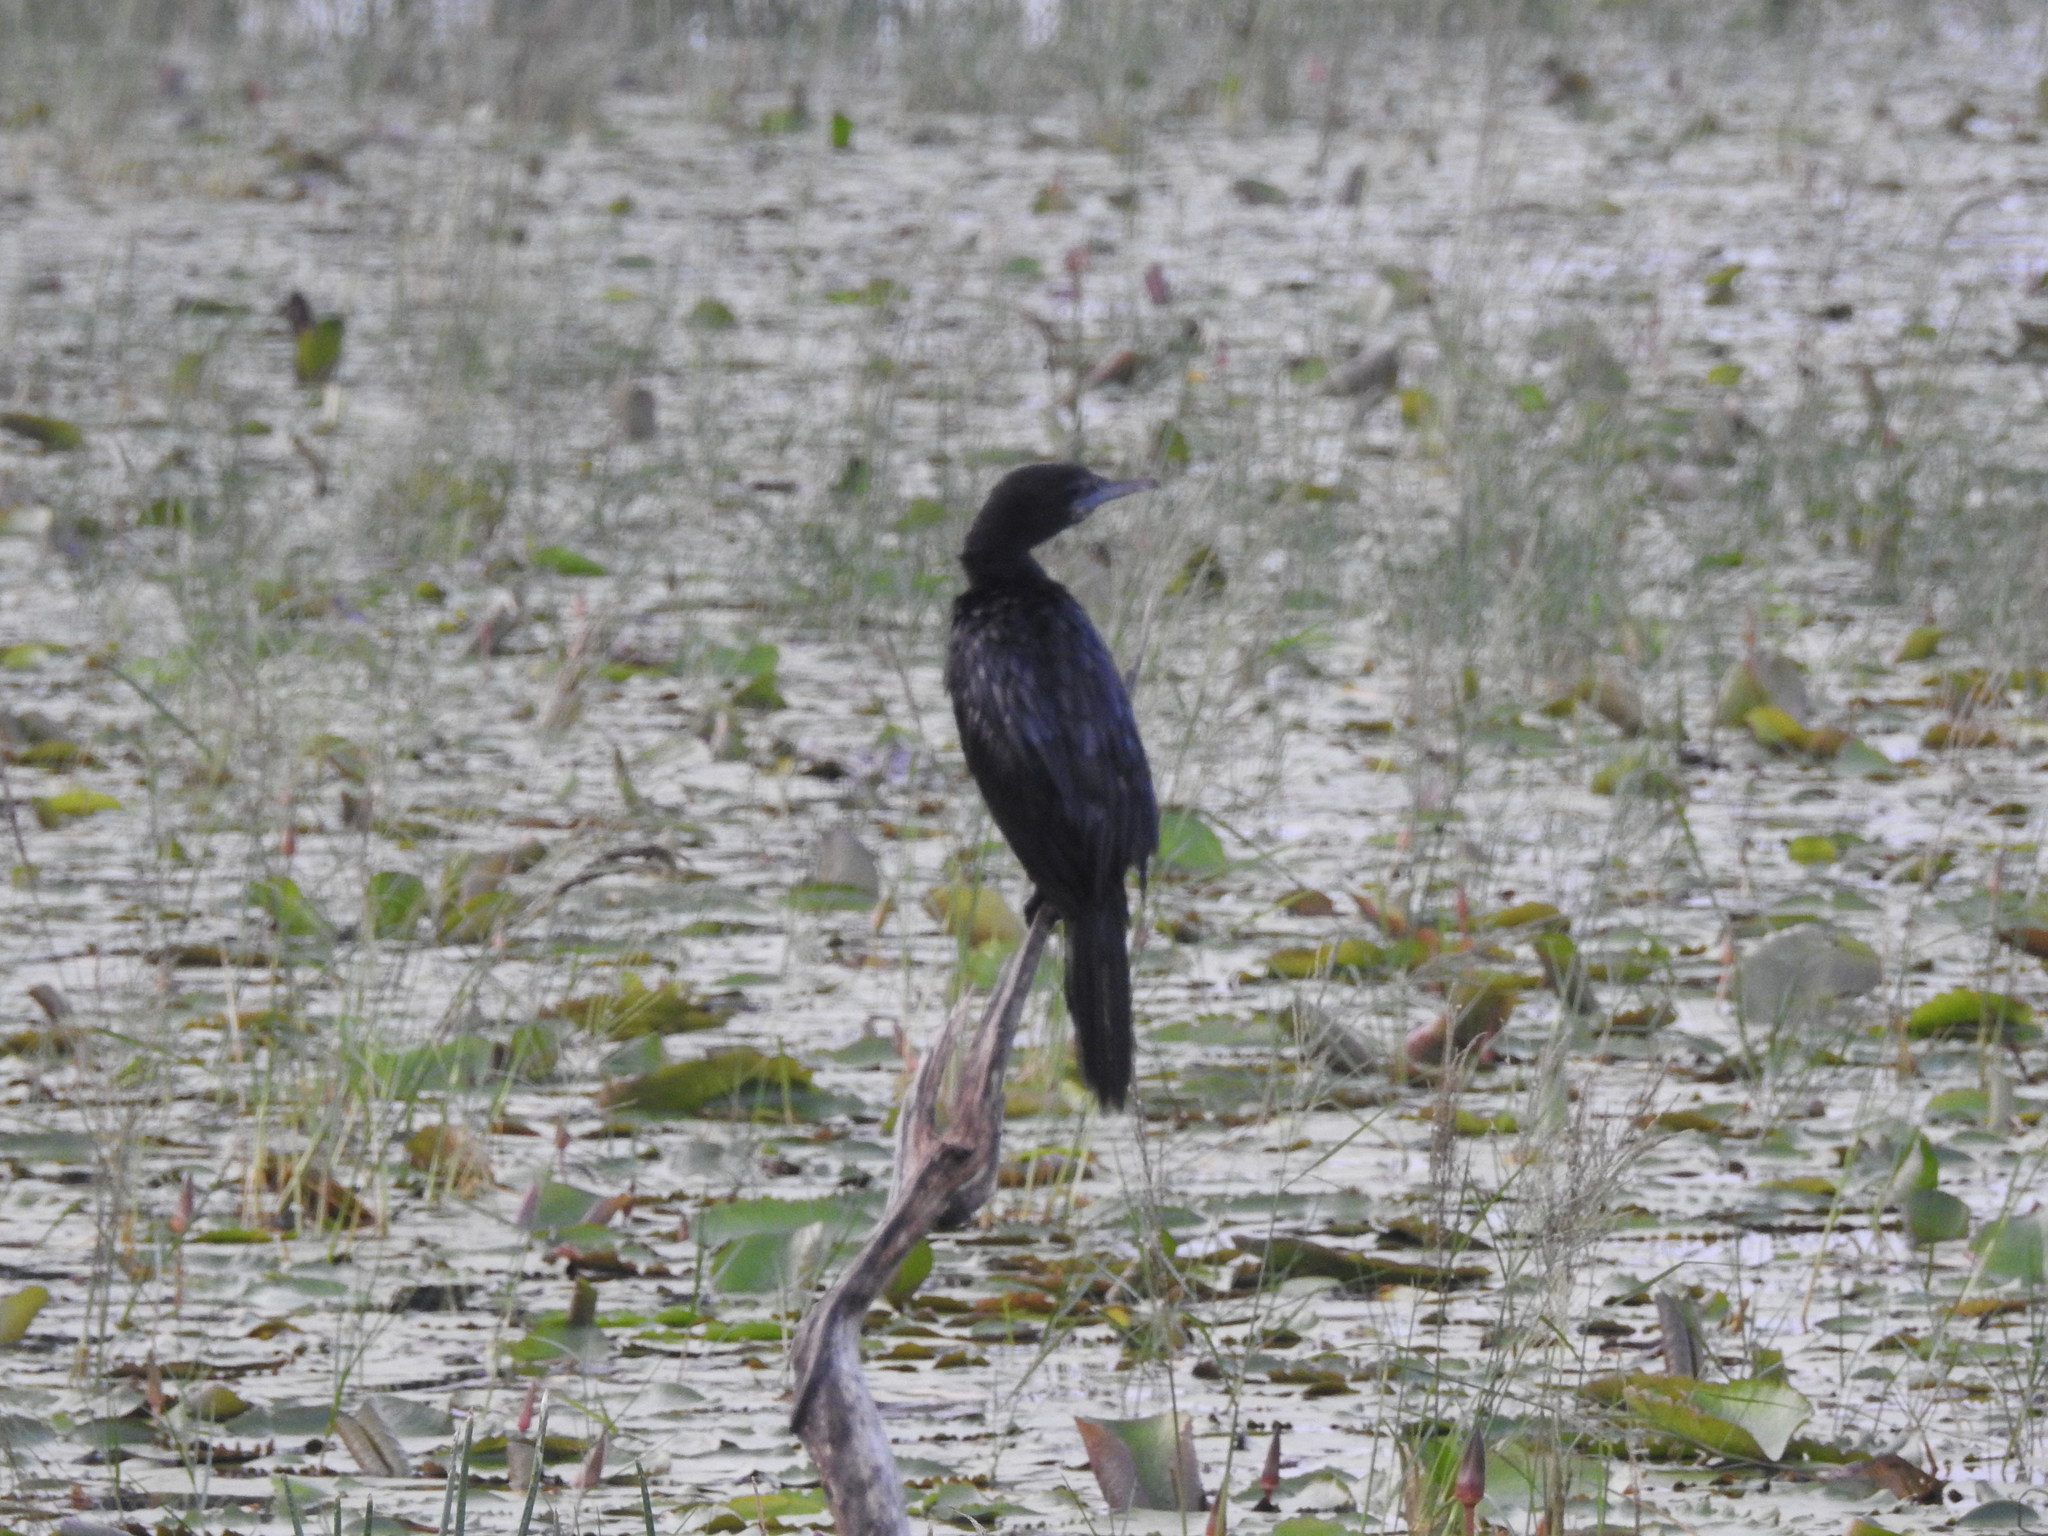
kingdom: Animalia
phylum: Chordata
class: Aves
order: Suliformes
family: Phalacrocoracidae
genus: Microcarbo
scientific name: Microcarbo niger
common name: Little cormorant
